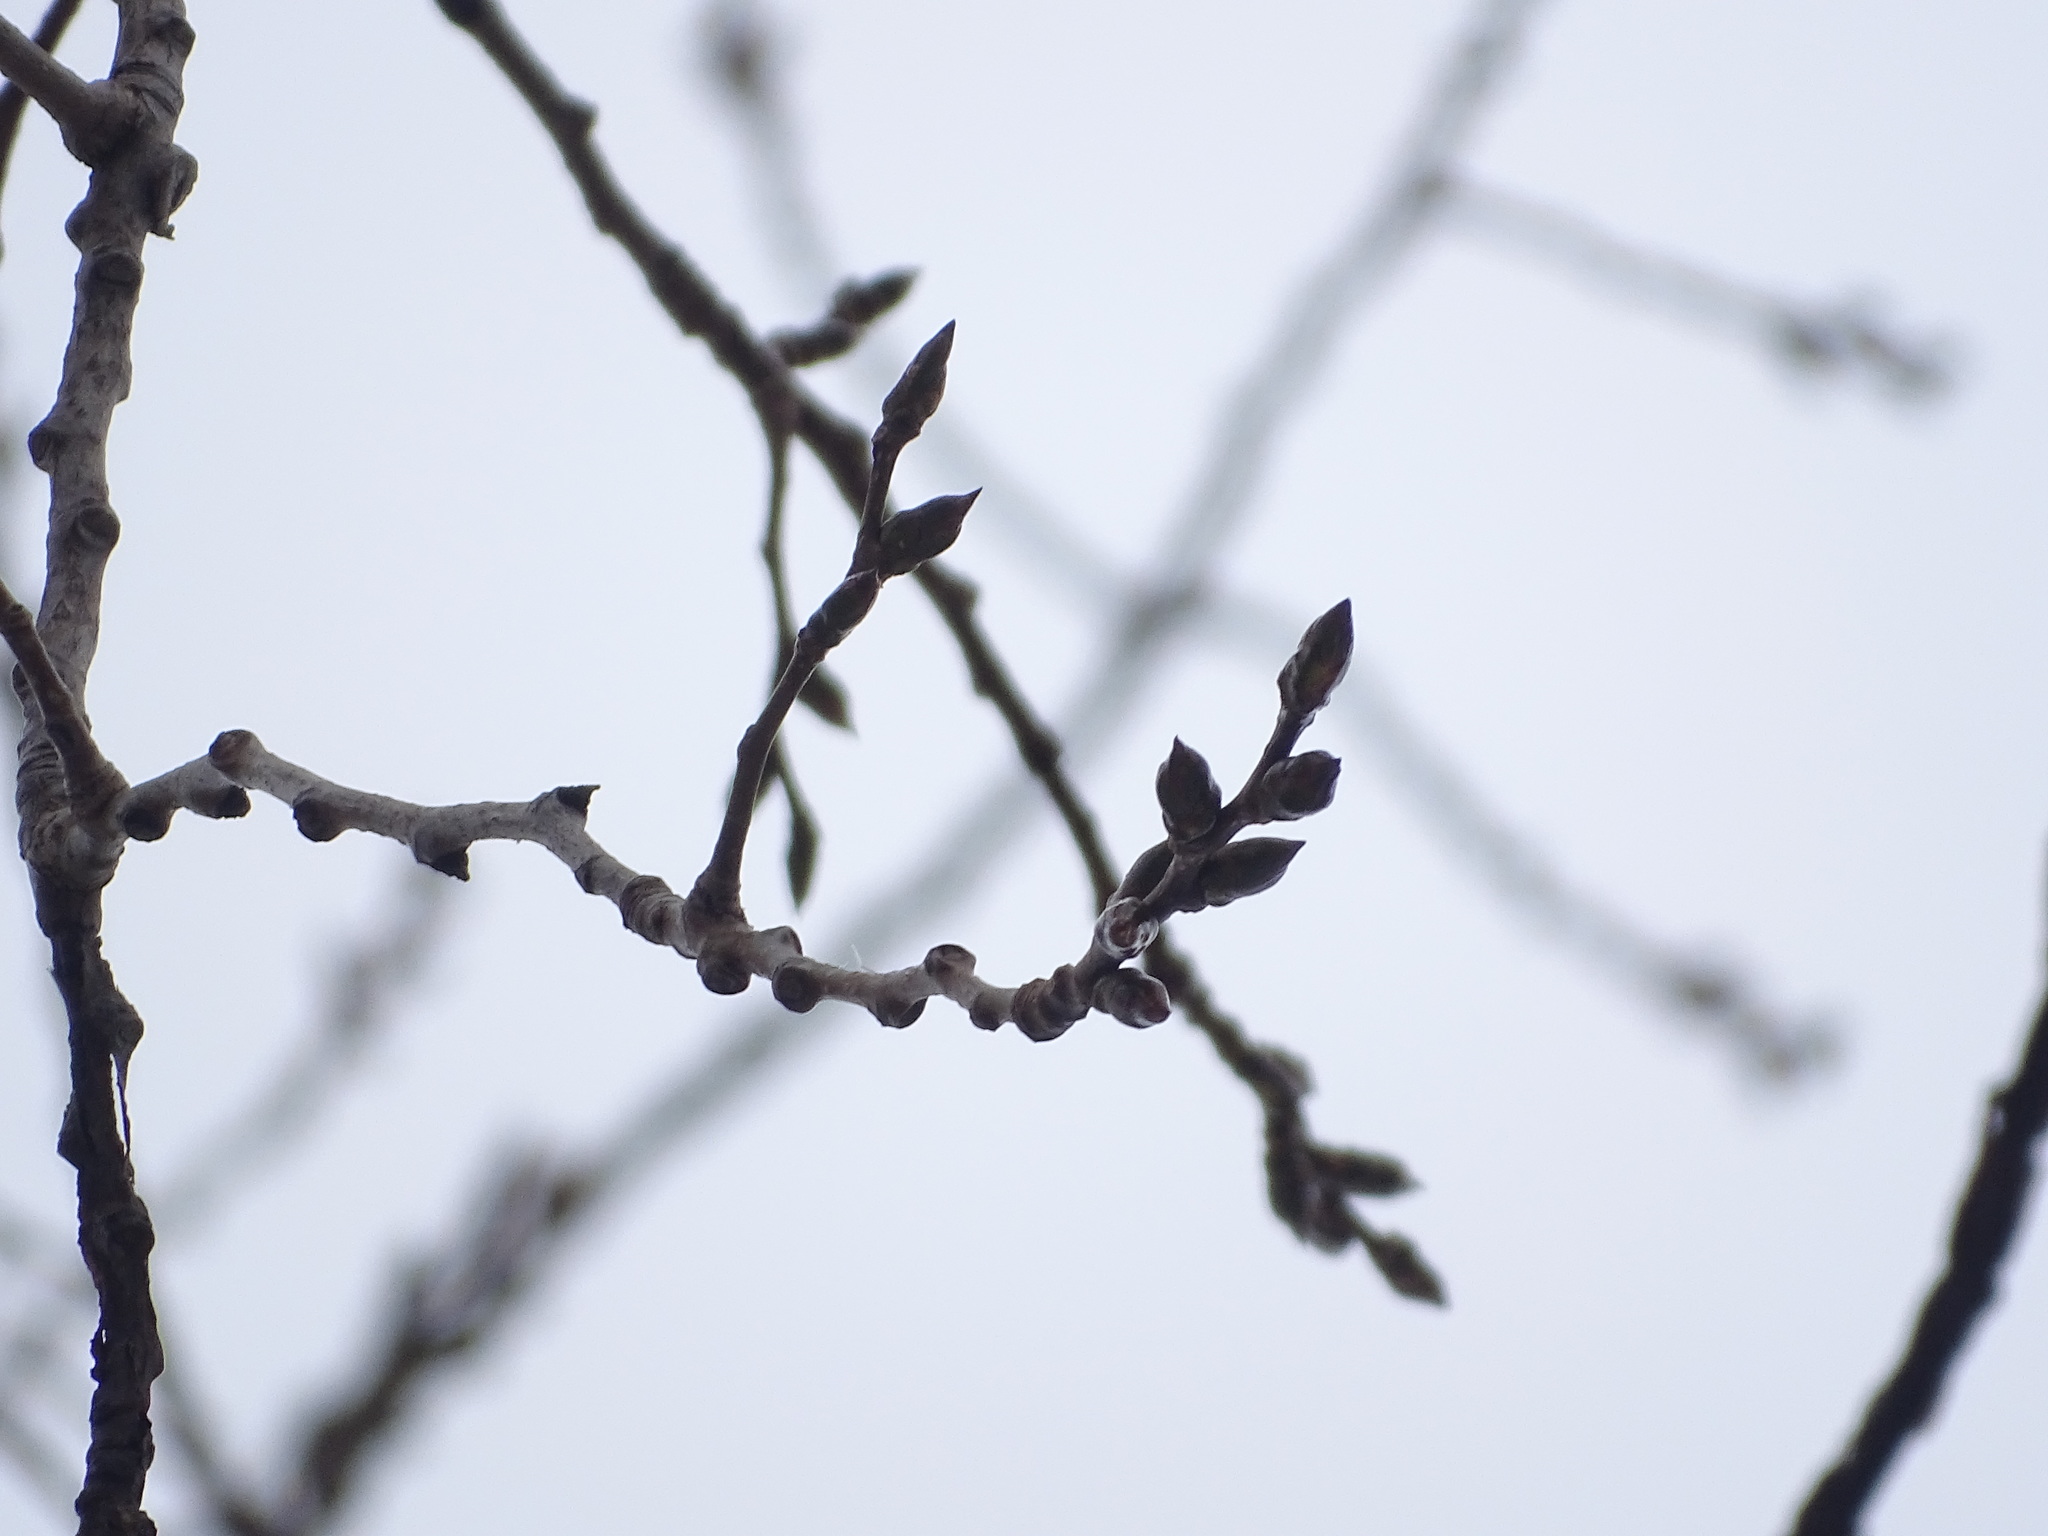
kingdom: Plantae
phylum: Tracheophyta
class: Magnoliopsida
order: Malpighiales
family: Salicaceae
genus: Populus
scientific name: Populus deltoides
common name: Eastern cottonwood
